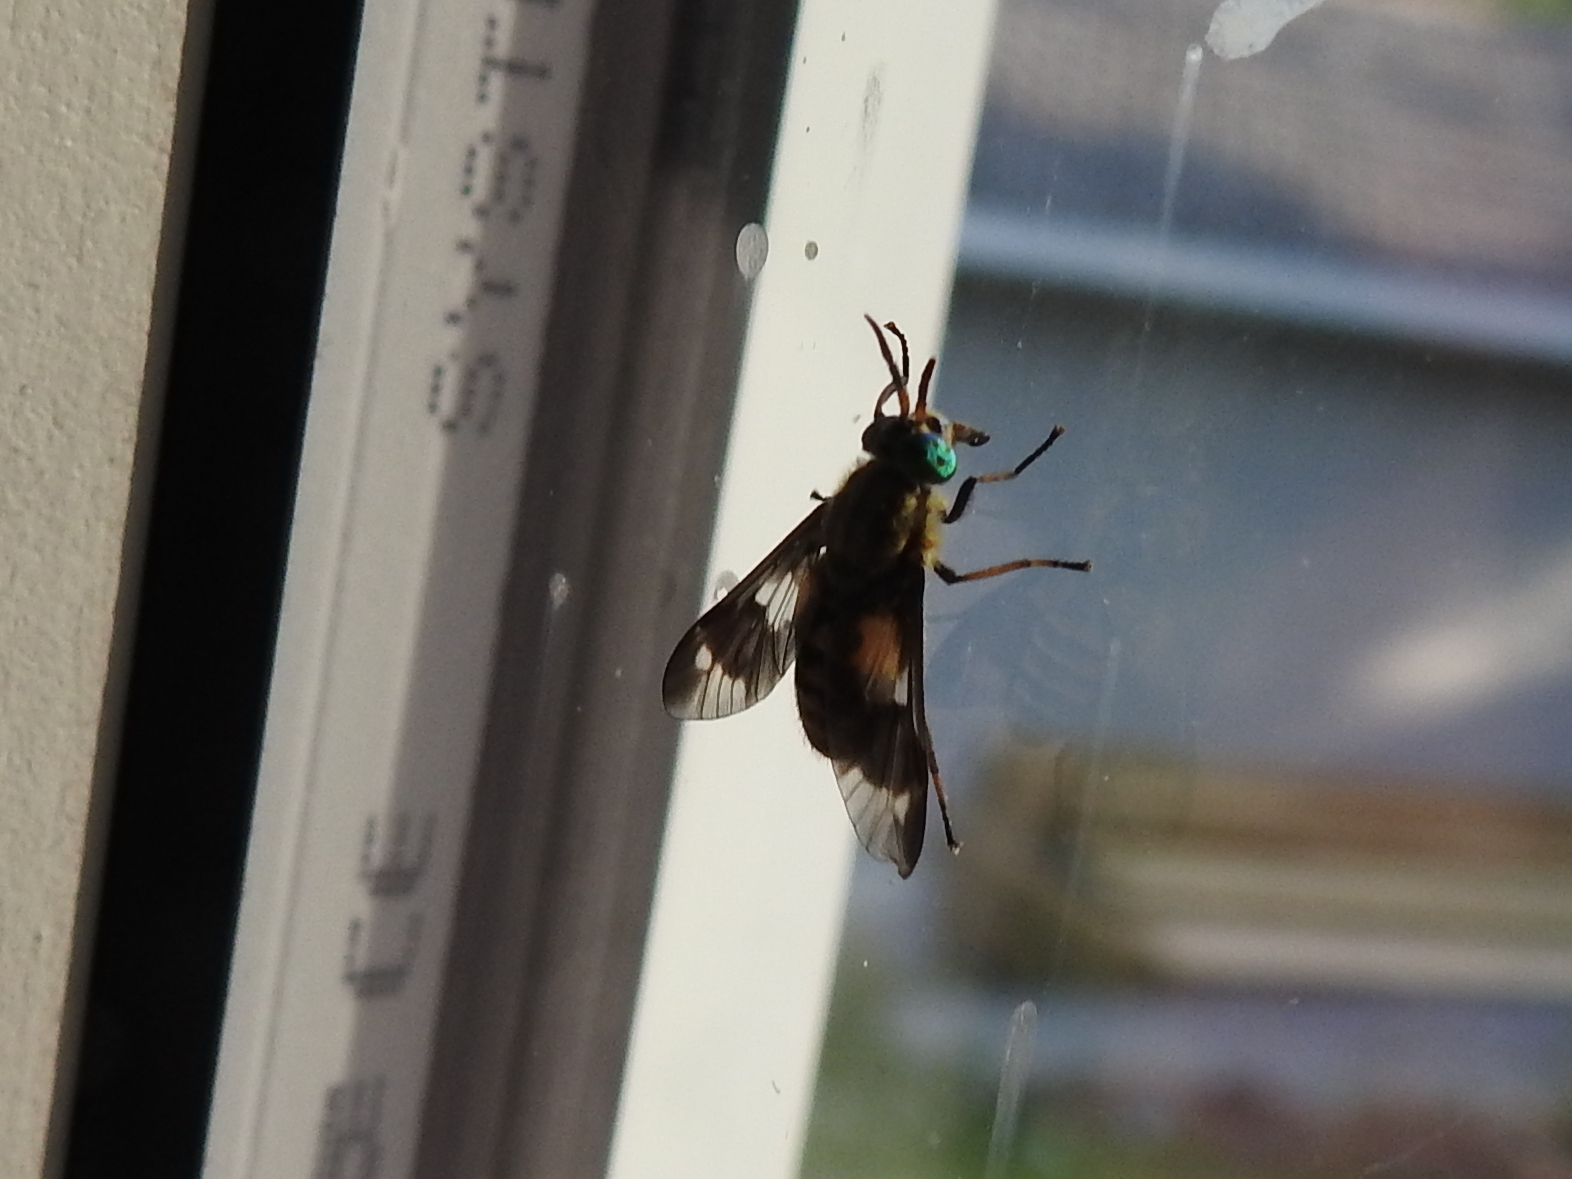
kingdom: Animalia
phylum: Arthropoda
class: Insecta
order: Diptera
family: Tabanidae
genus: Chrysops
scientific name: Chrysops relictus
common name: Twin-lobed deerfly
